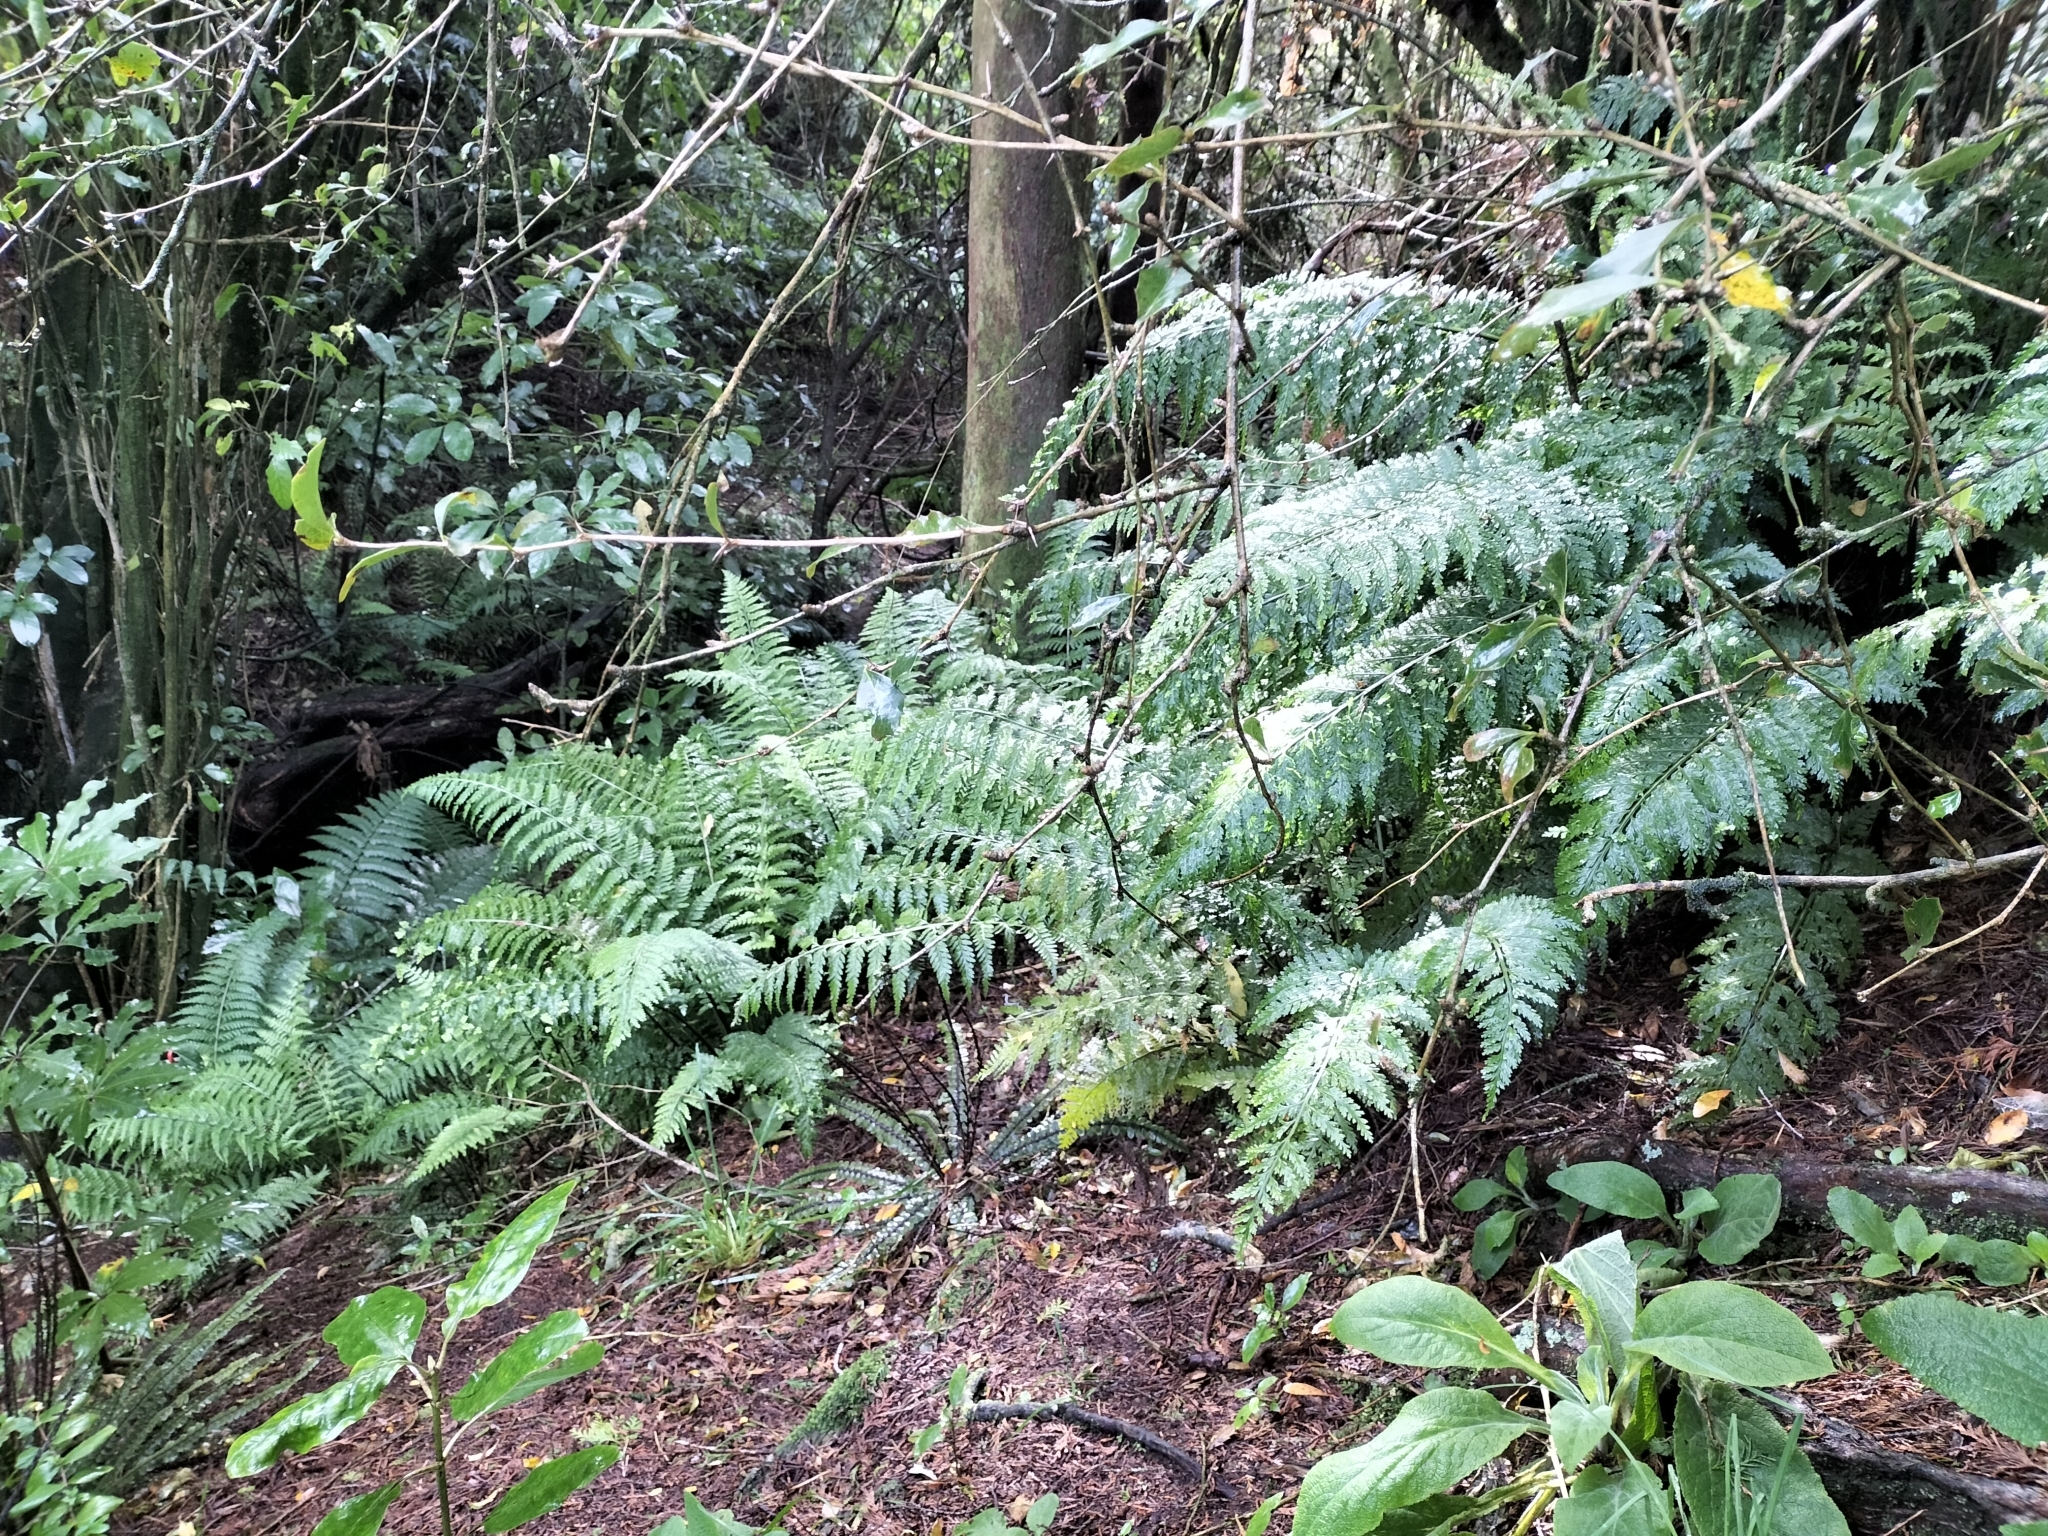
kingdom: Plantae
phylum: Tracheophyta
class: Polypodiopsida
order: Polypodiales
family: Aspleniaceae
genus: Asplenium
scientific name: Asplenium bulbiferum
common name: Mother fern
